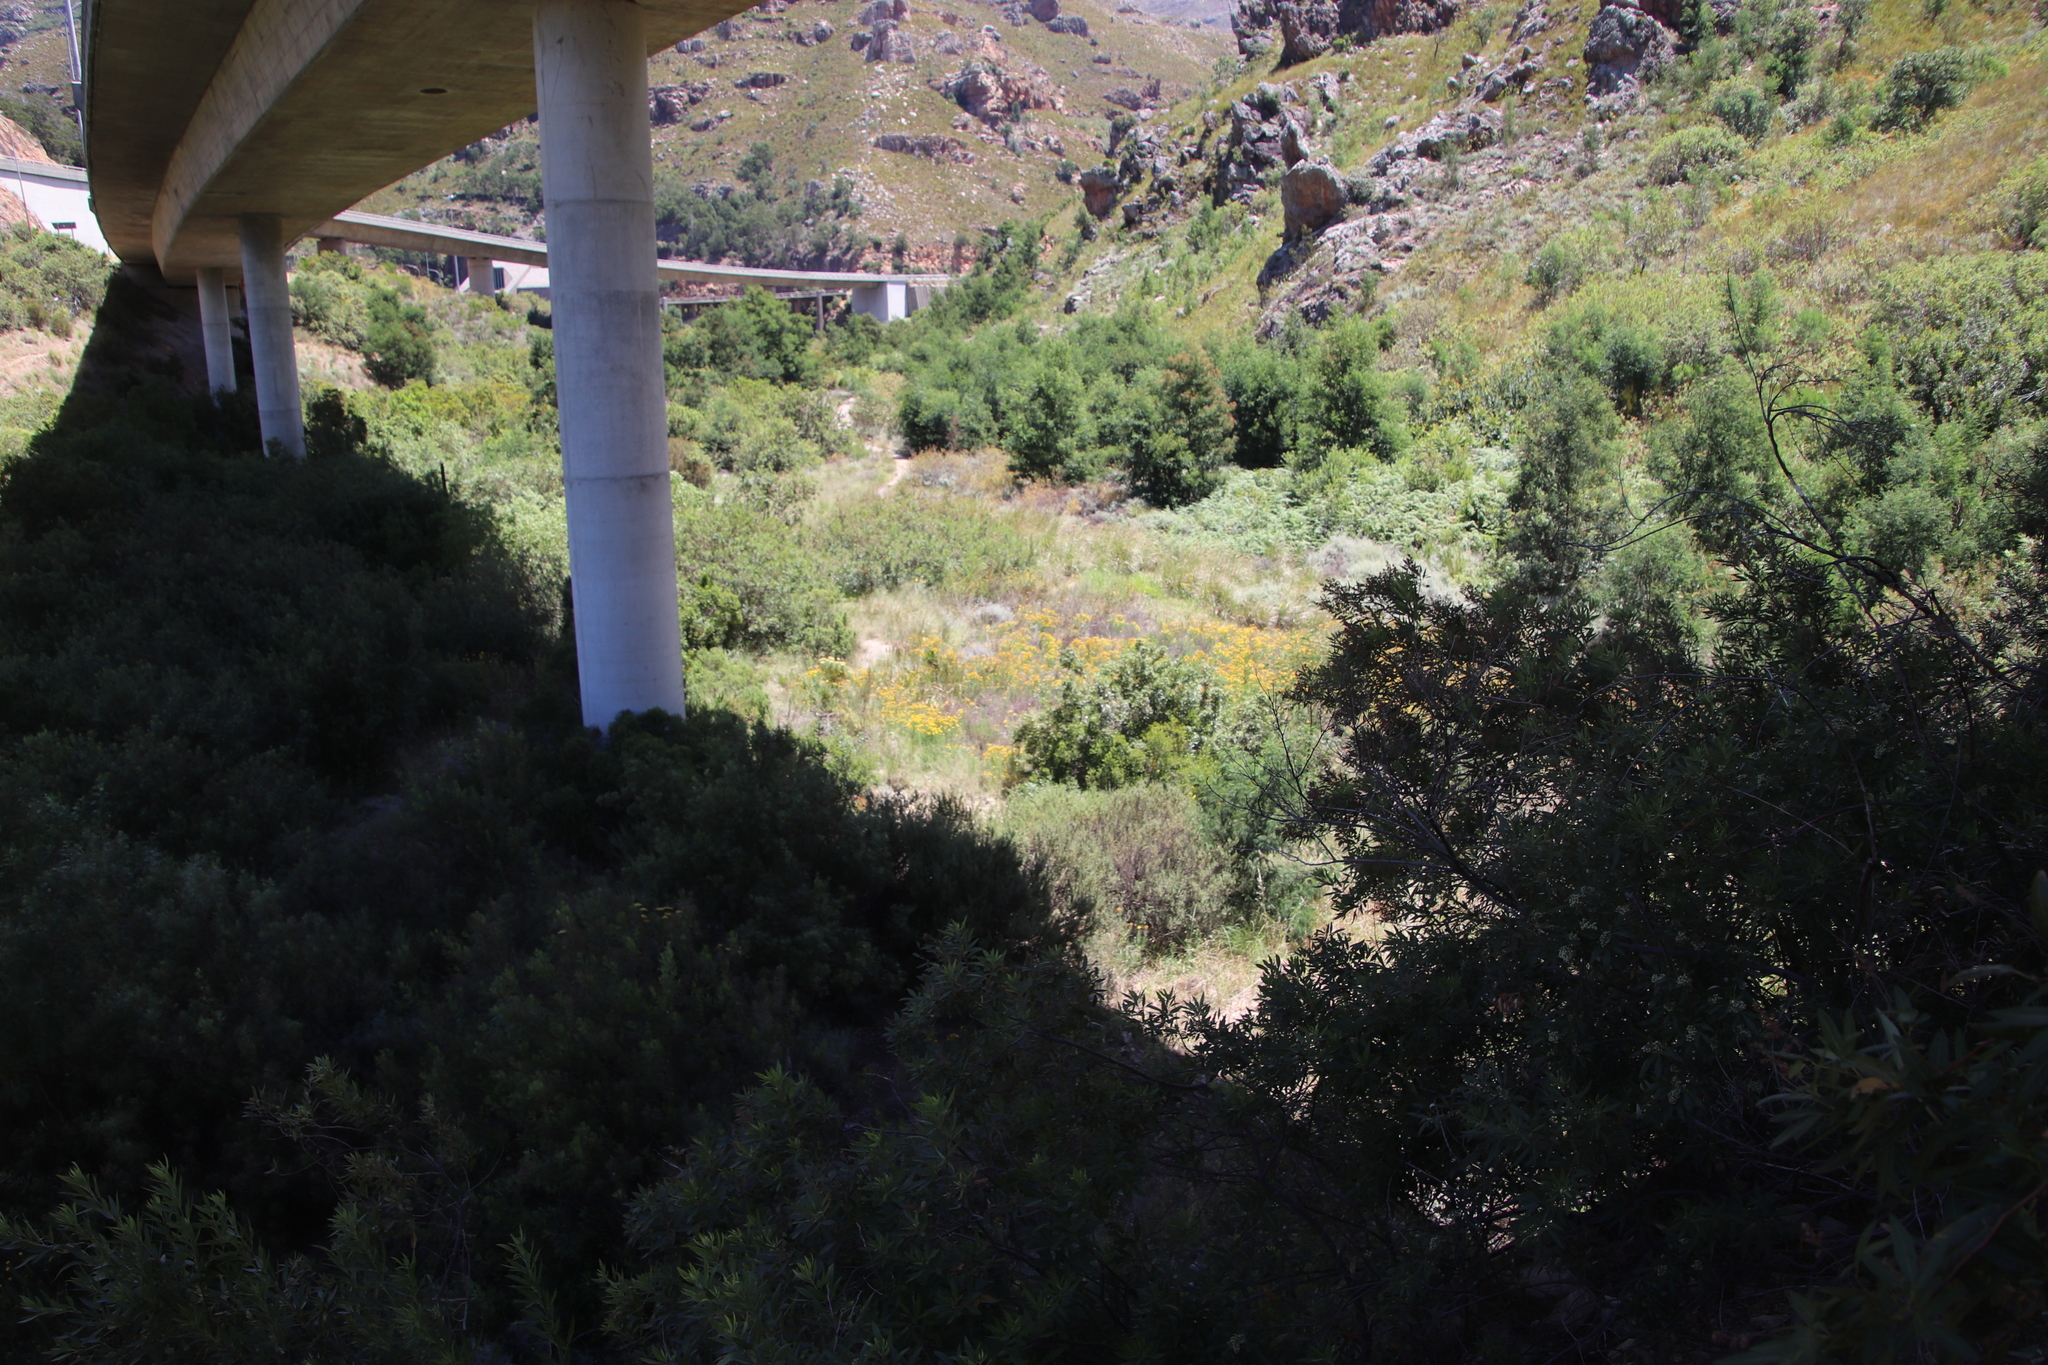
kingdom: Plantae
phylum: Tracheophyta
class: Magnoliopsida
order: Malpighiales
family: Hypericaceae
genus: Hypericum
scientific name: Hypericum perforatum
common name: Common st. johnswort
